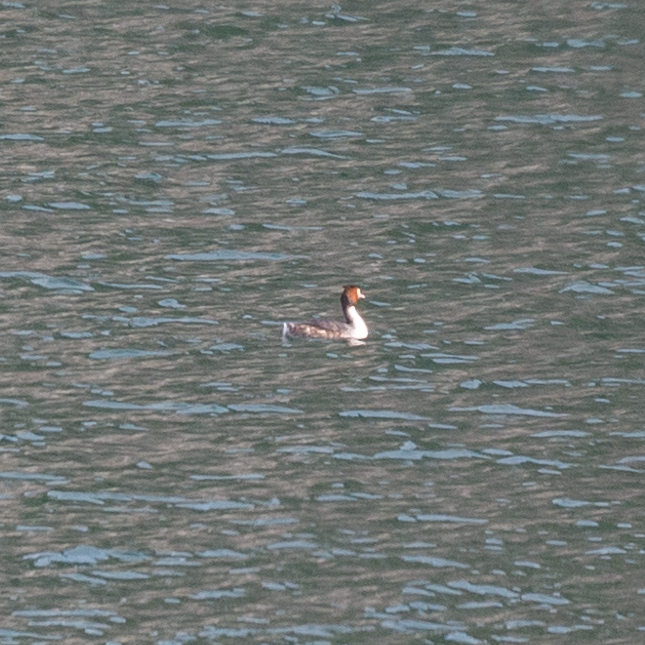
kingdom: Animalia
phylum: Chordata
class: Aves
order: Podicipediformes
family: Podicipedidae
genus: Podiceps
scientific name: Podiceps cristatus
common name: Great crested grebe
